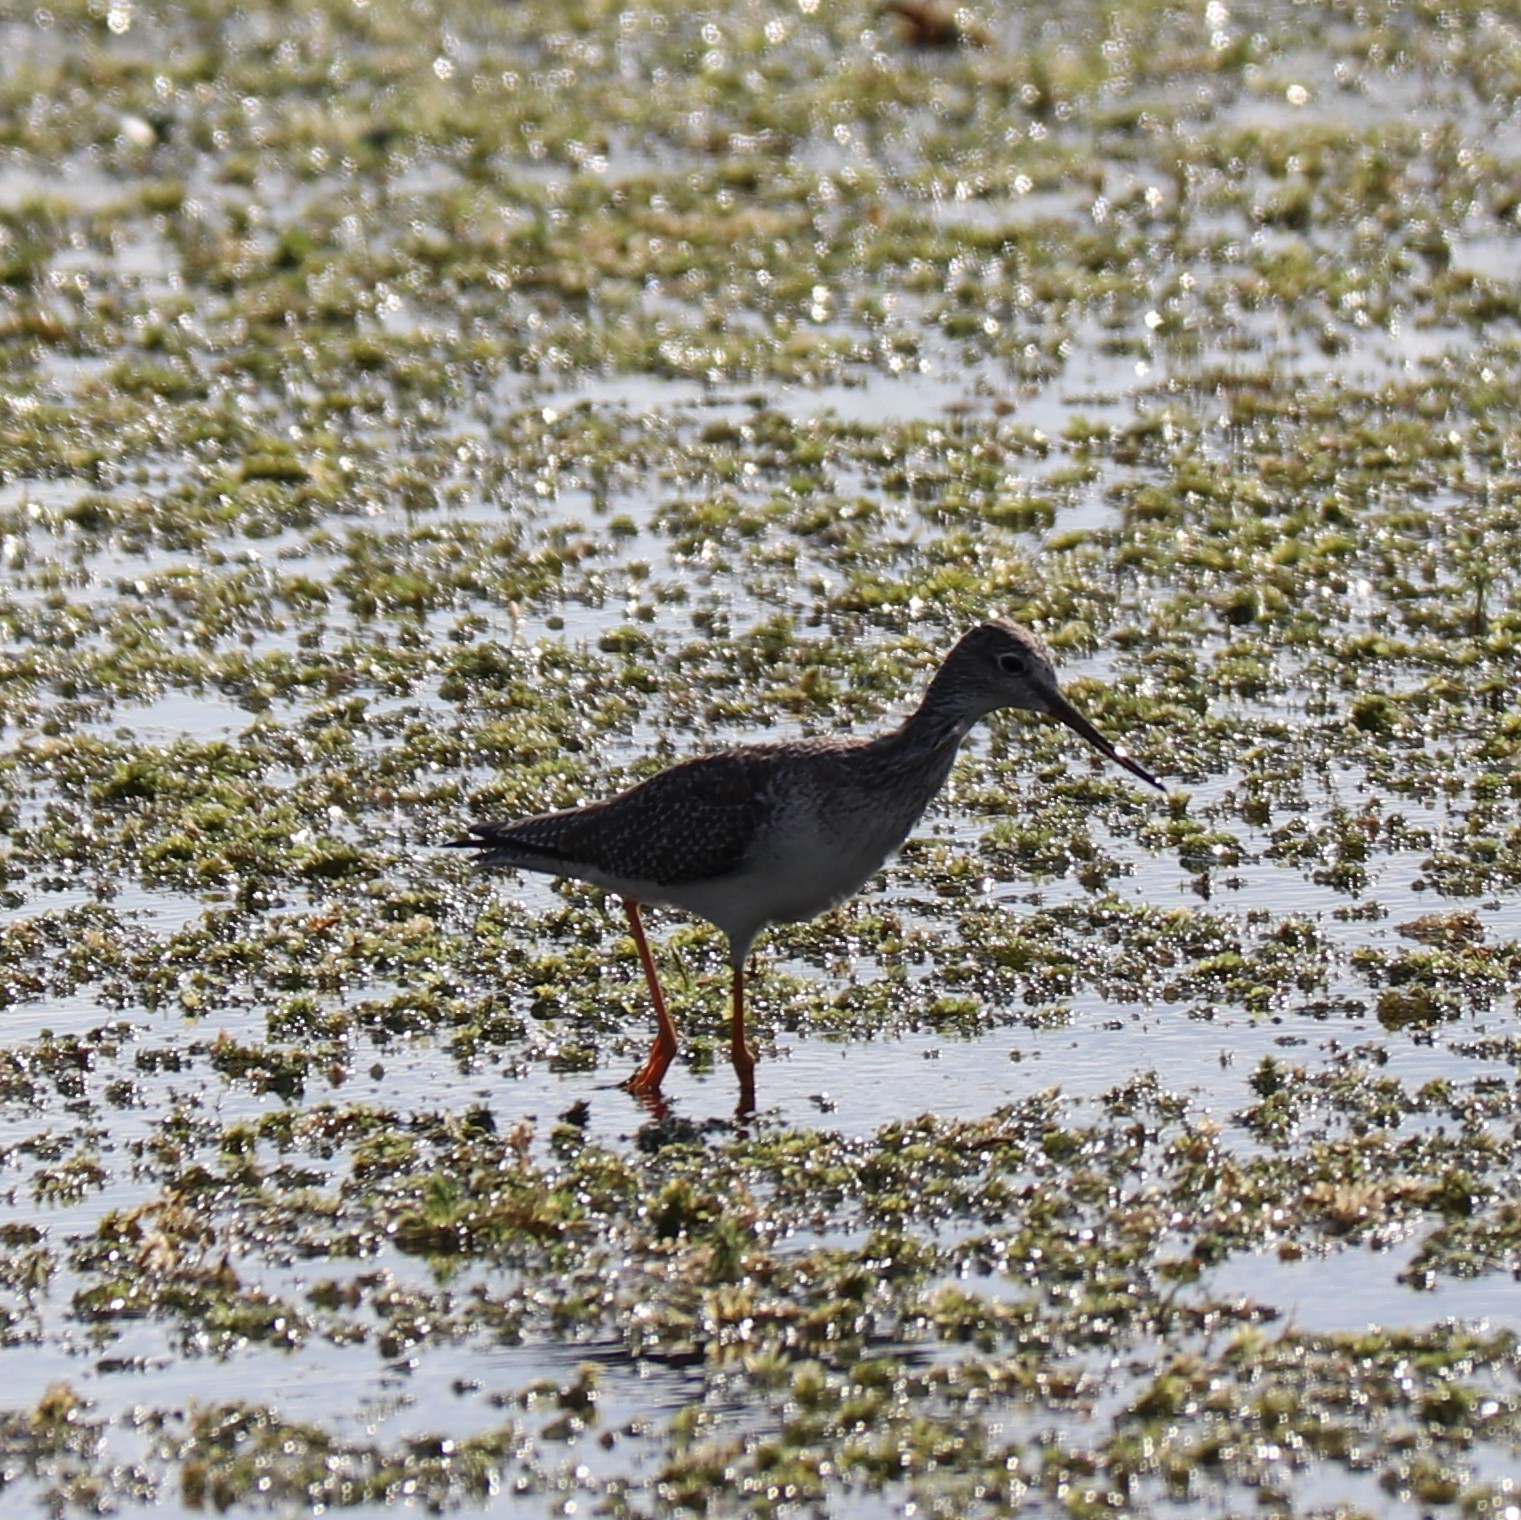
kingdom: Animalia
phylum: Chordata
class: Aves
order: Charadriiformes
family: Scolopacidae
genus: Tringa
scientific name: Tringa melanoleuca
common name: Greater yellowlegs
